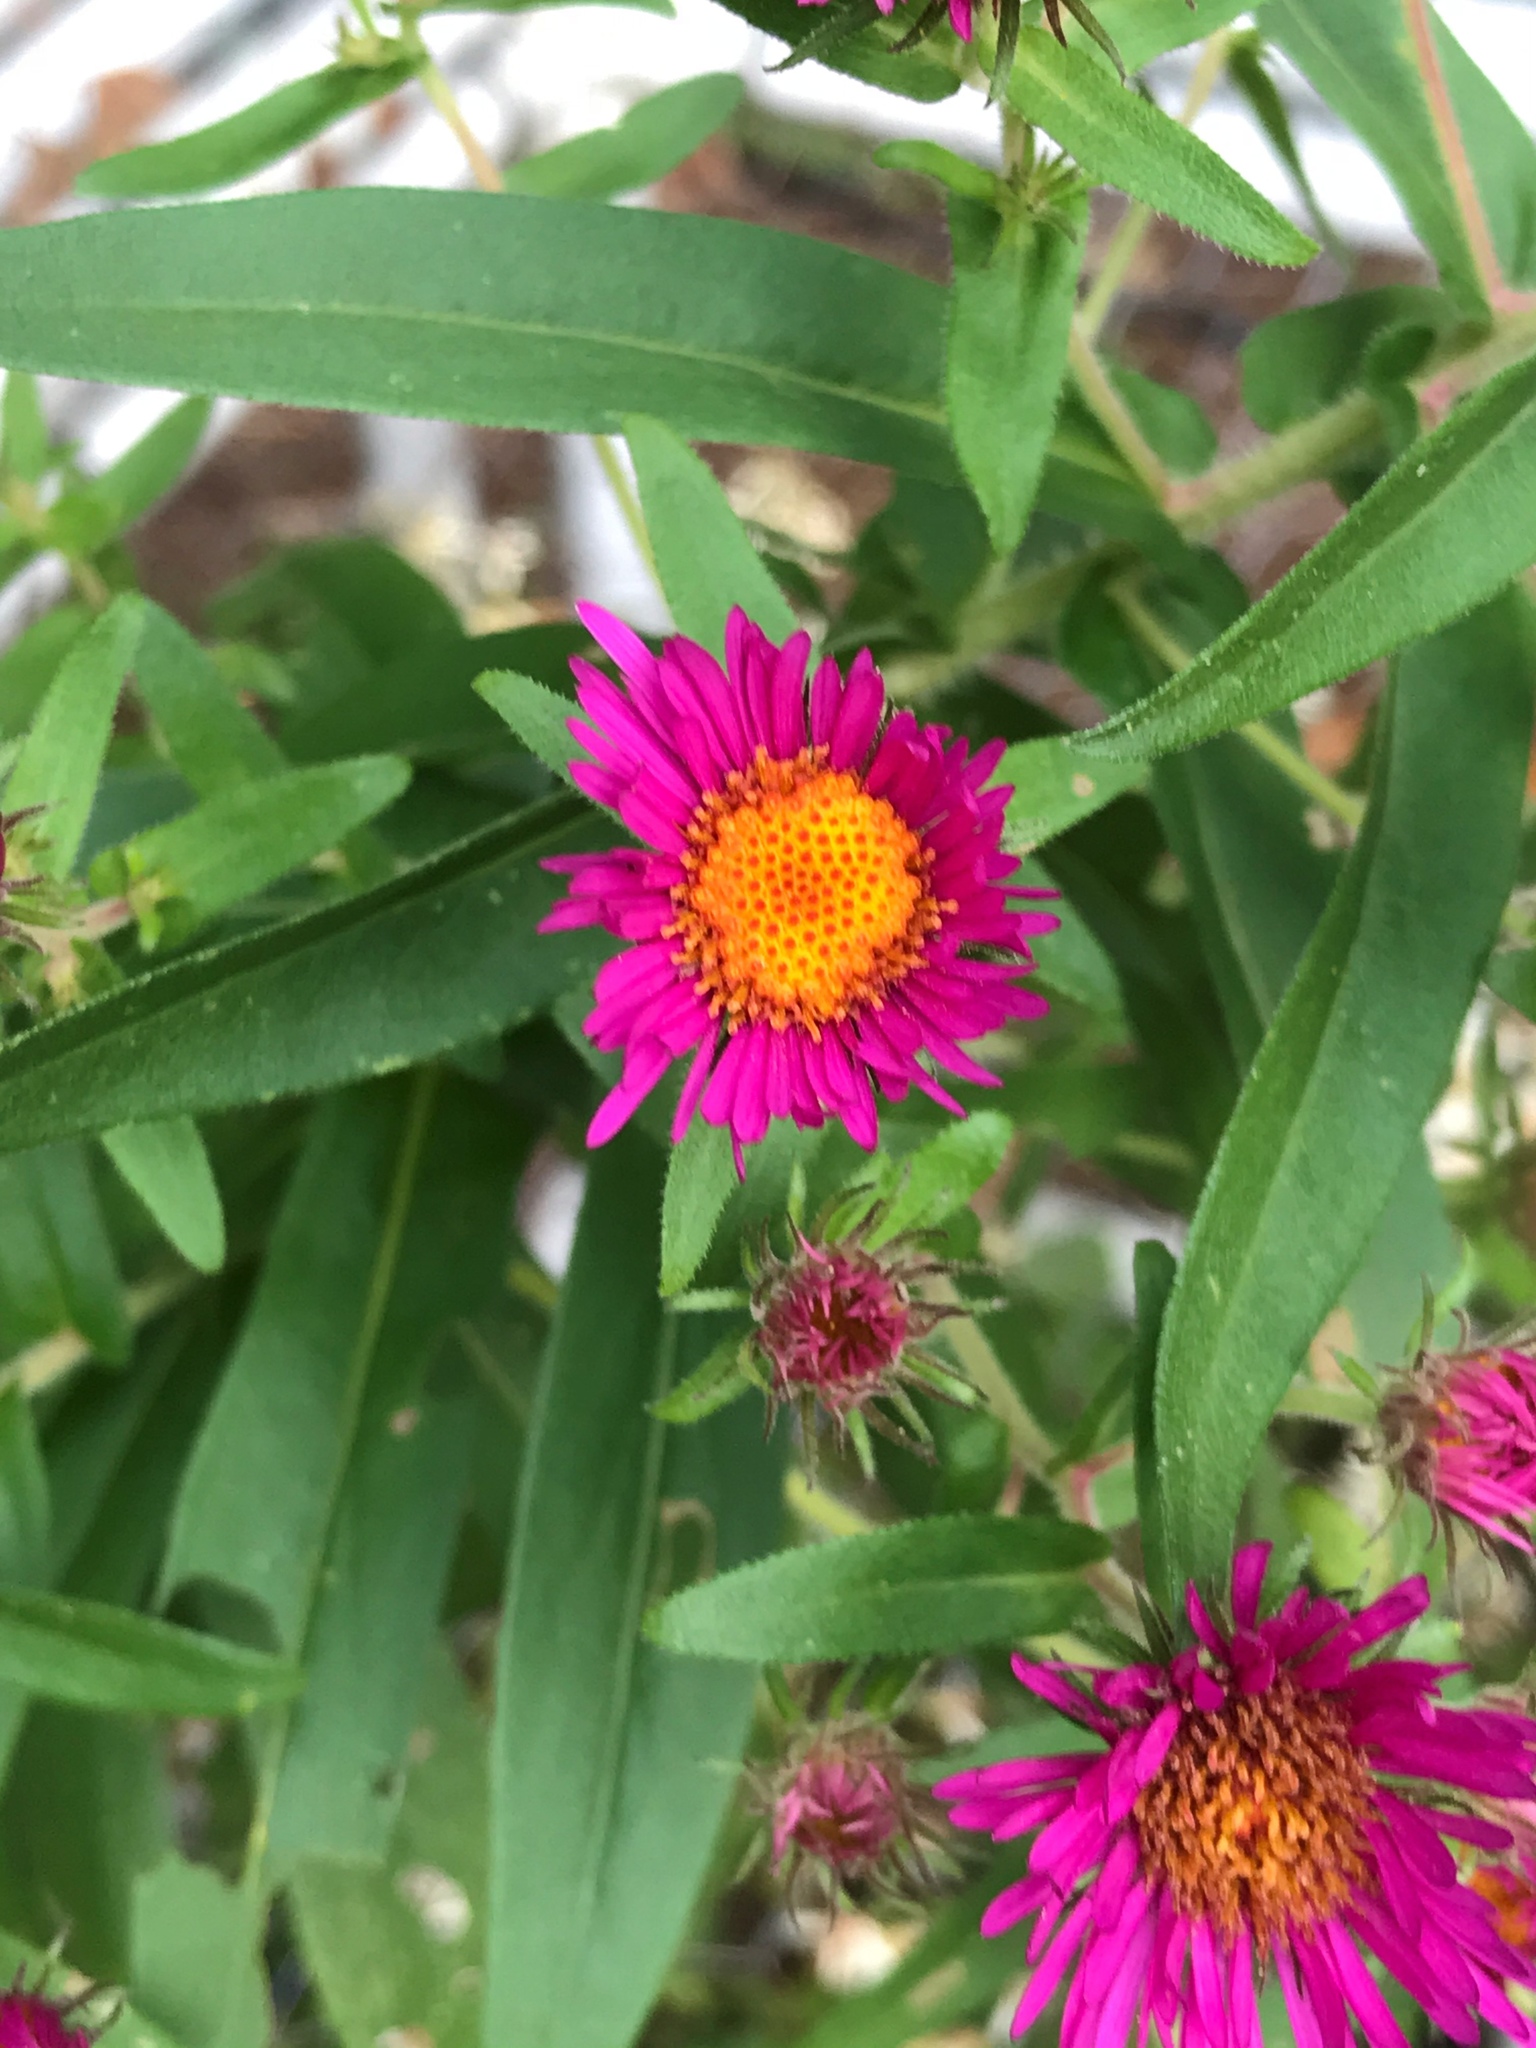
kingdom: Plantae
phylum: Tracheophyta
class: Magnoliopsida
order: Asterales
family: Asteraceae
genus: Symphyotrichum
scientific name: Symphyotrichum novae-angliae
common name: Michaelmas daisy
